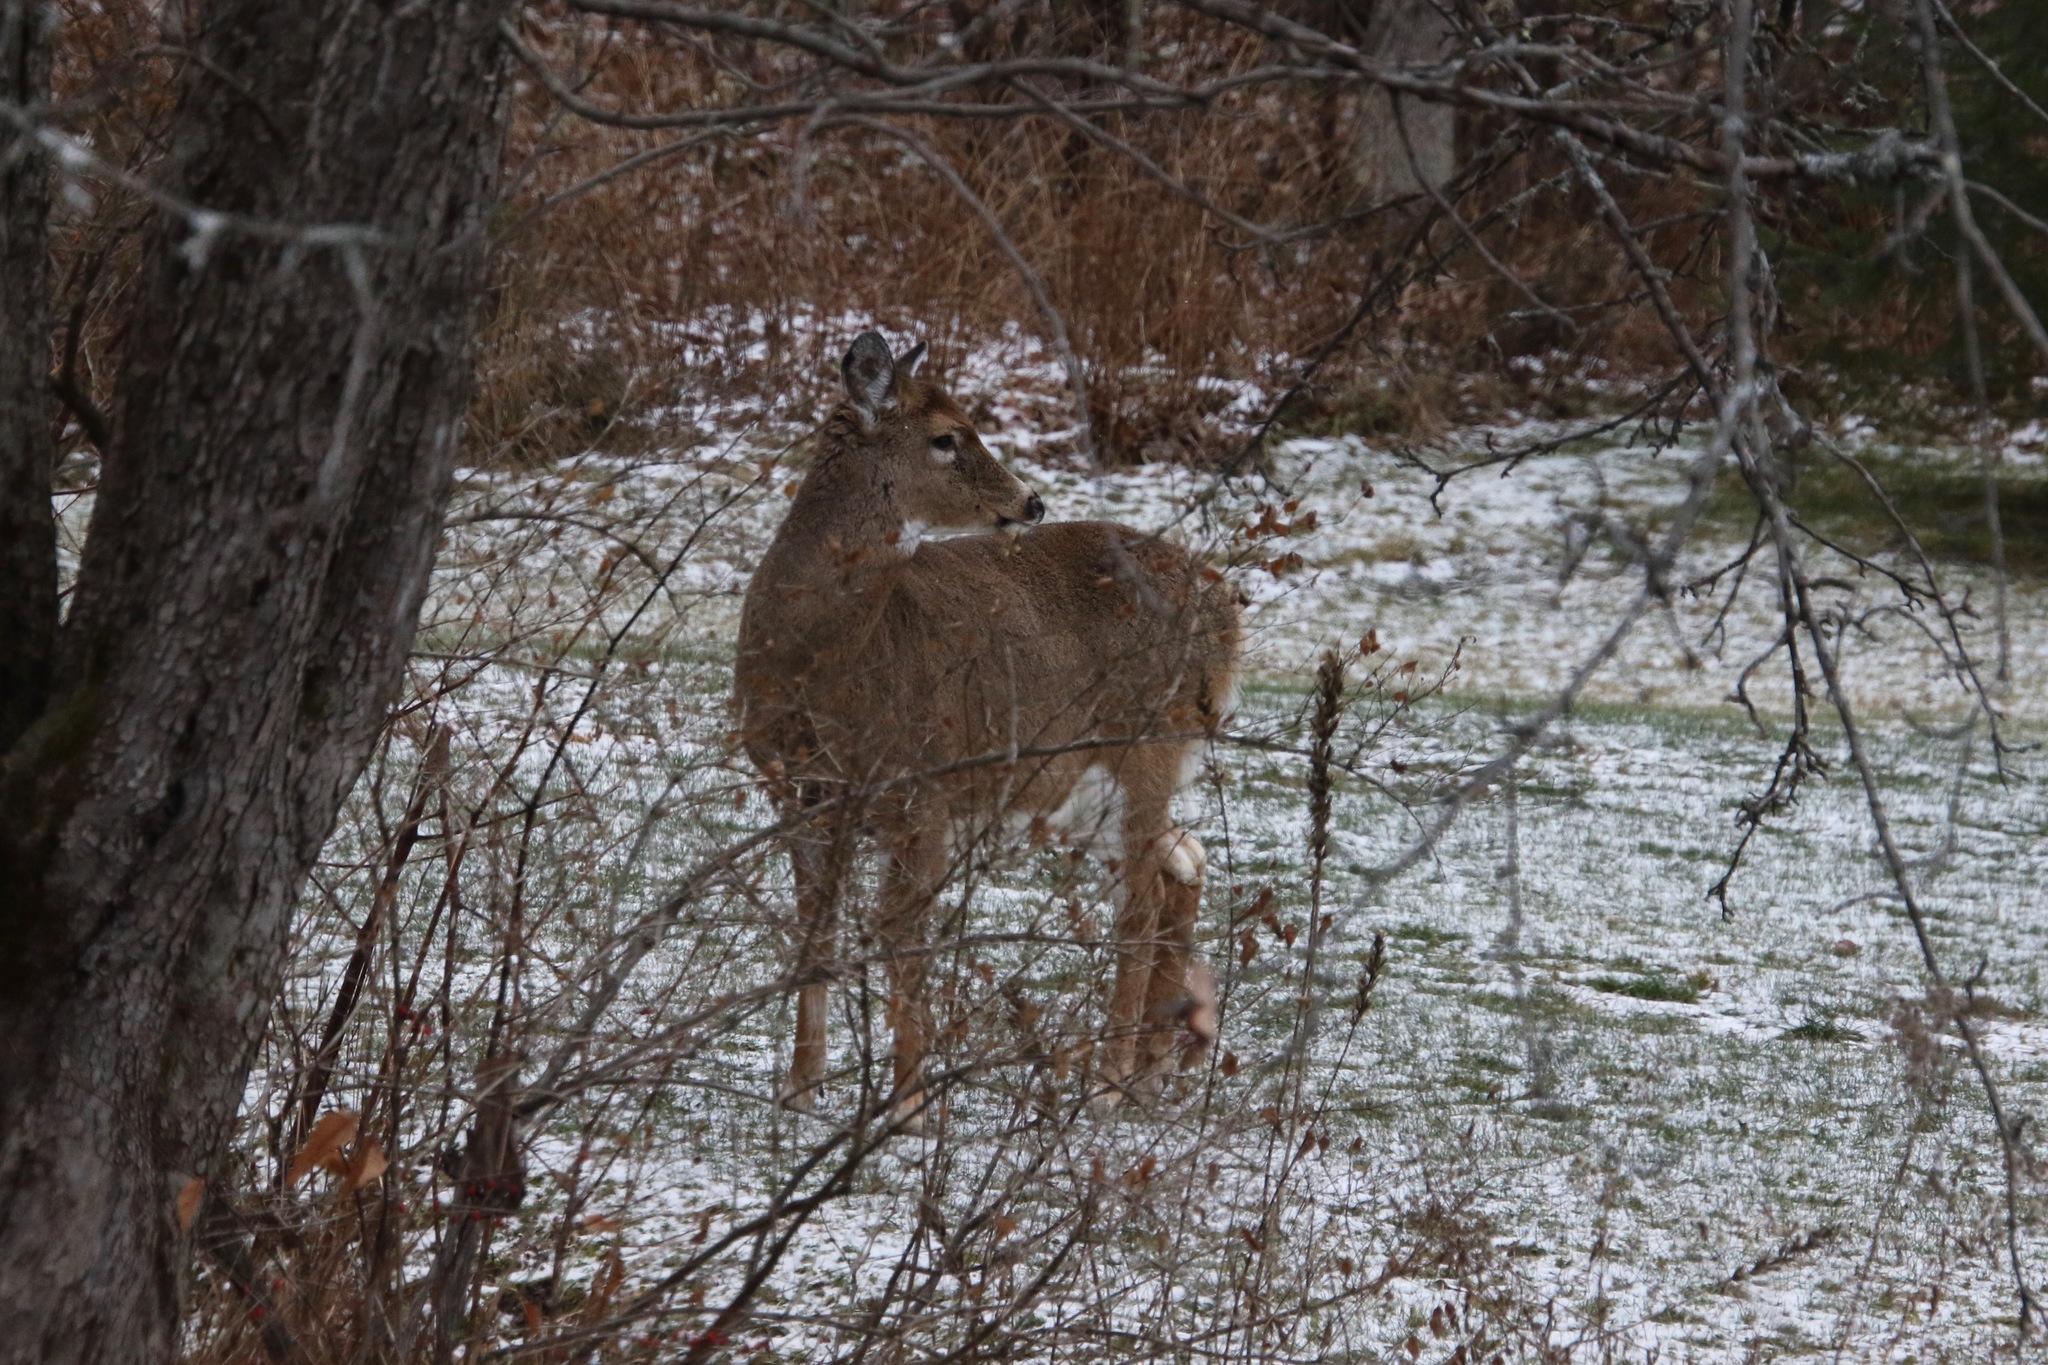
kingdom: Animalia
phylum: Chordata
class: Mammalia
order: Artiodactyla
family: Cervidae
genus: Odocoileus
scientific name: Odocoileus virginianus
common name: White-tailed deer
